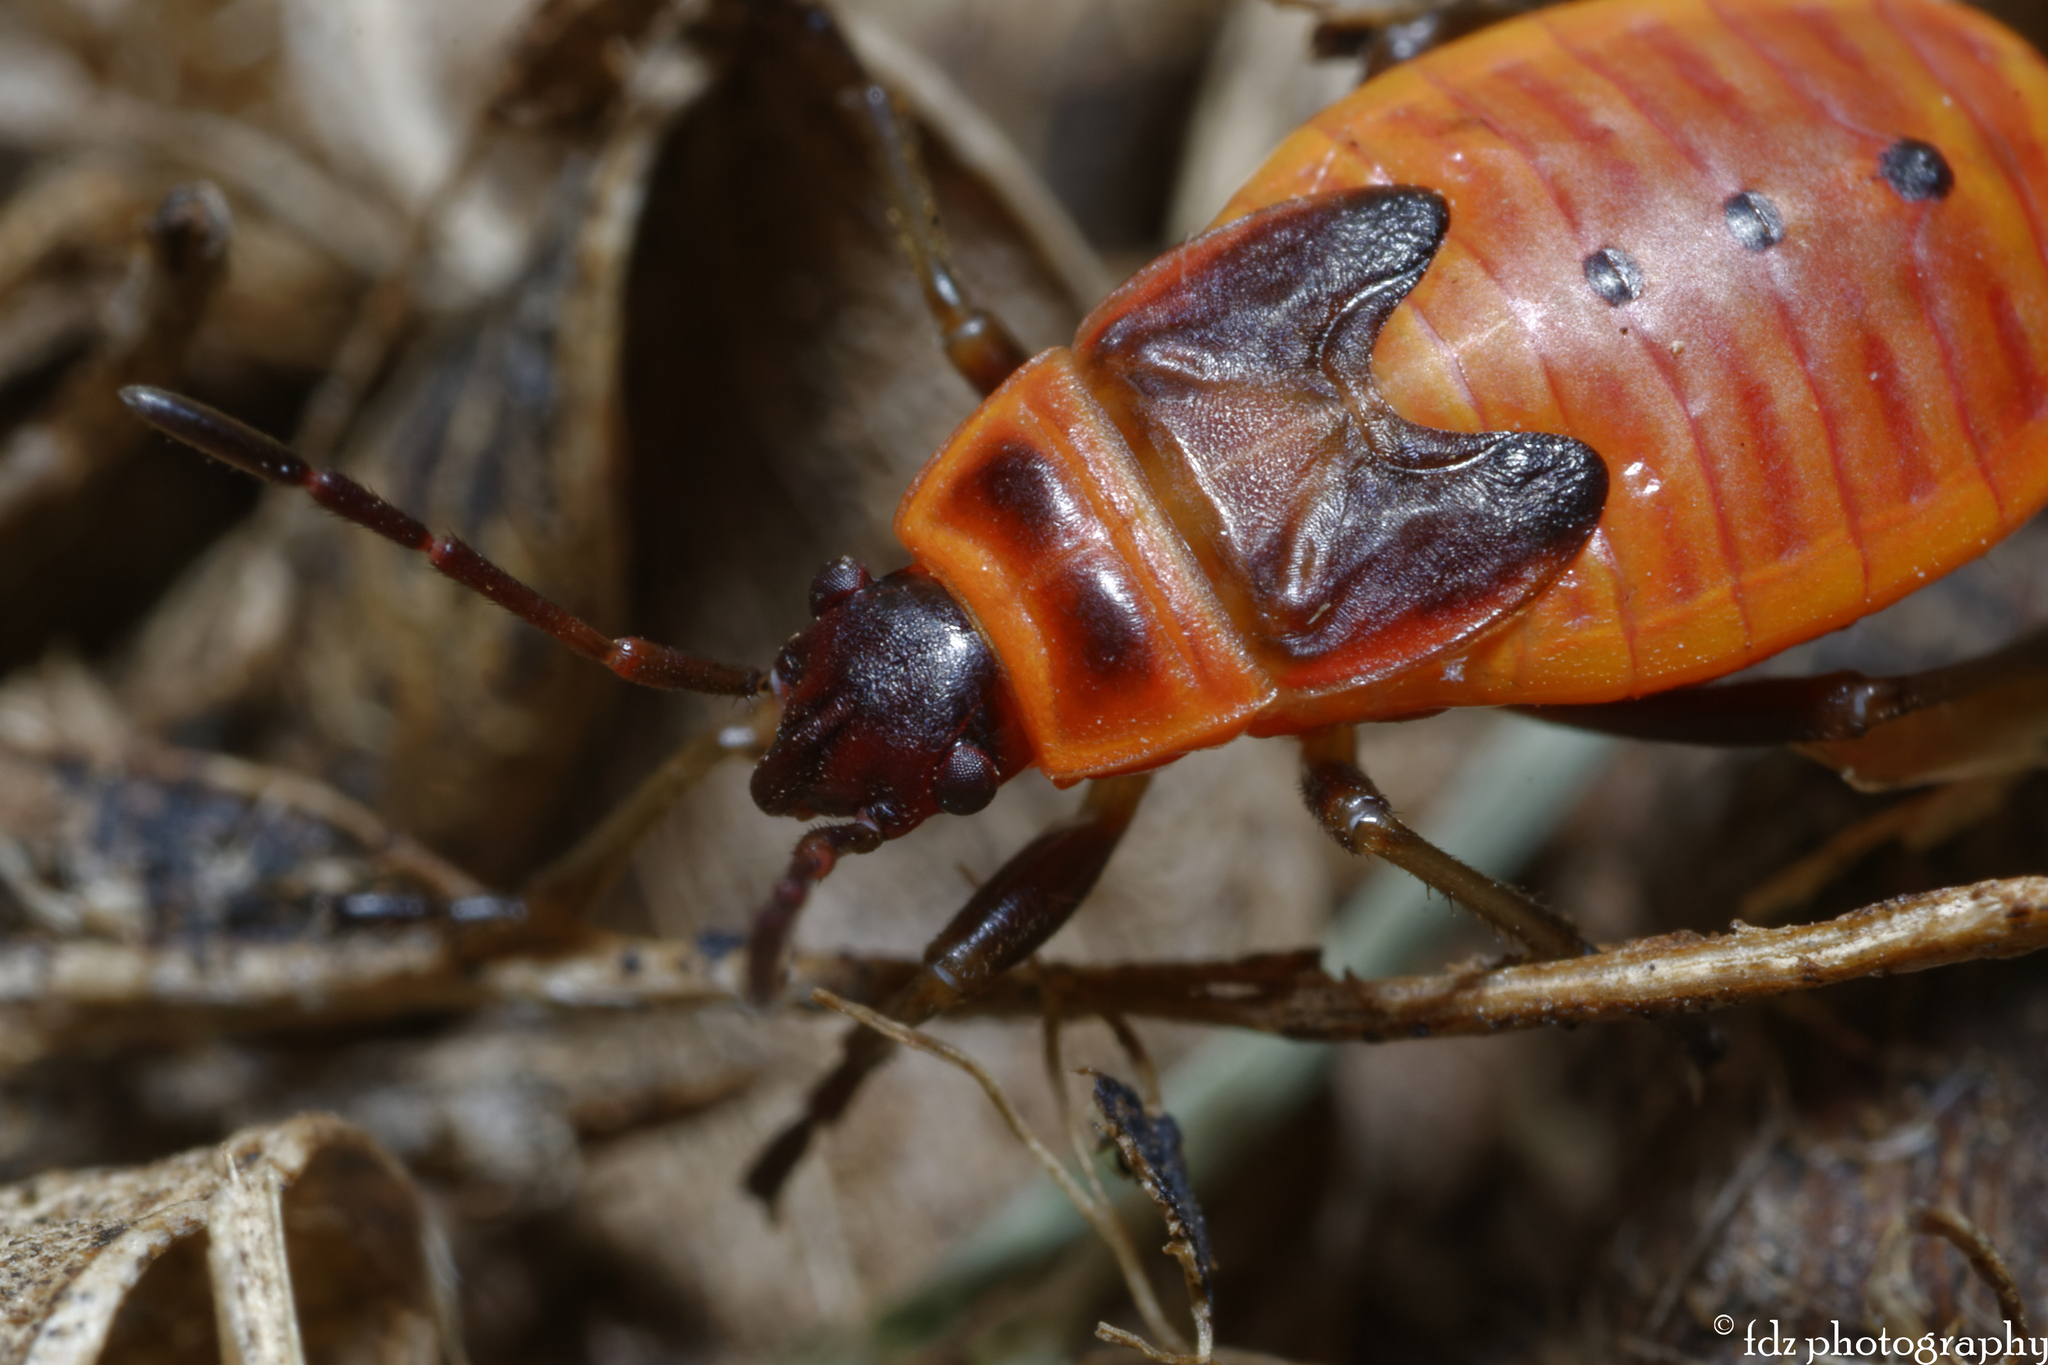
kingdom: Animalia
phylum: Arthropoda
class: Insecta
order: Hemiptera
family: Pyrrhocoridae
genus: Pyrrhocoris
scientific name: Pyrrhocoris apterus
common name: Firebug
